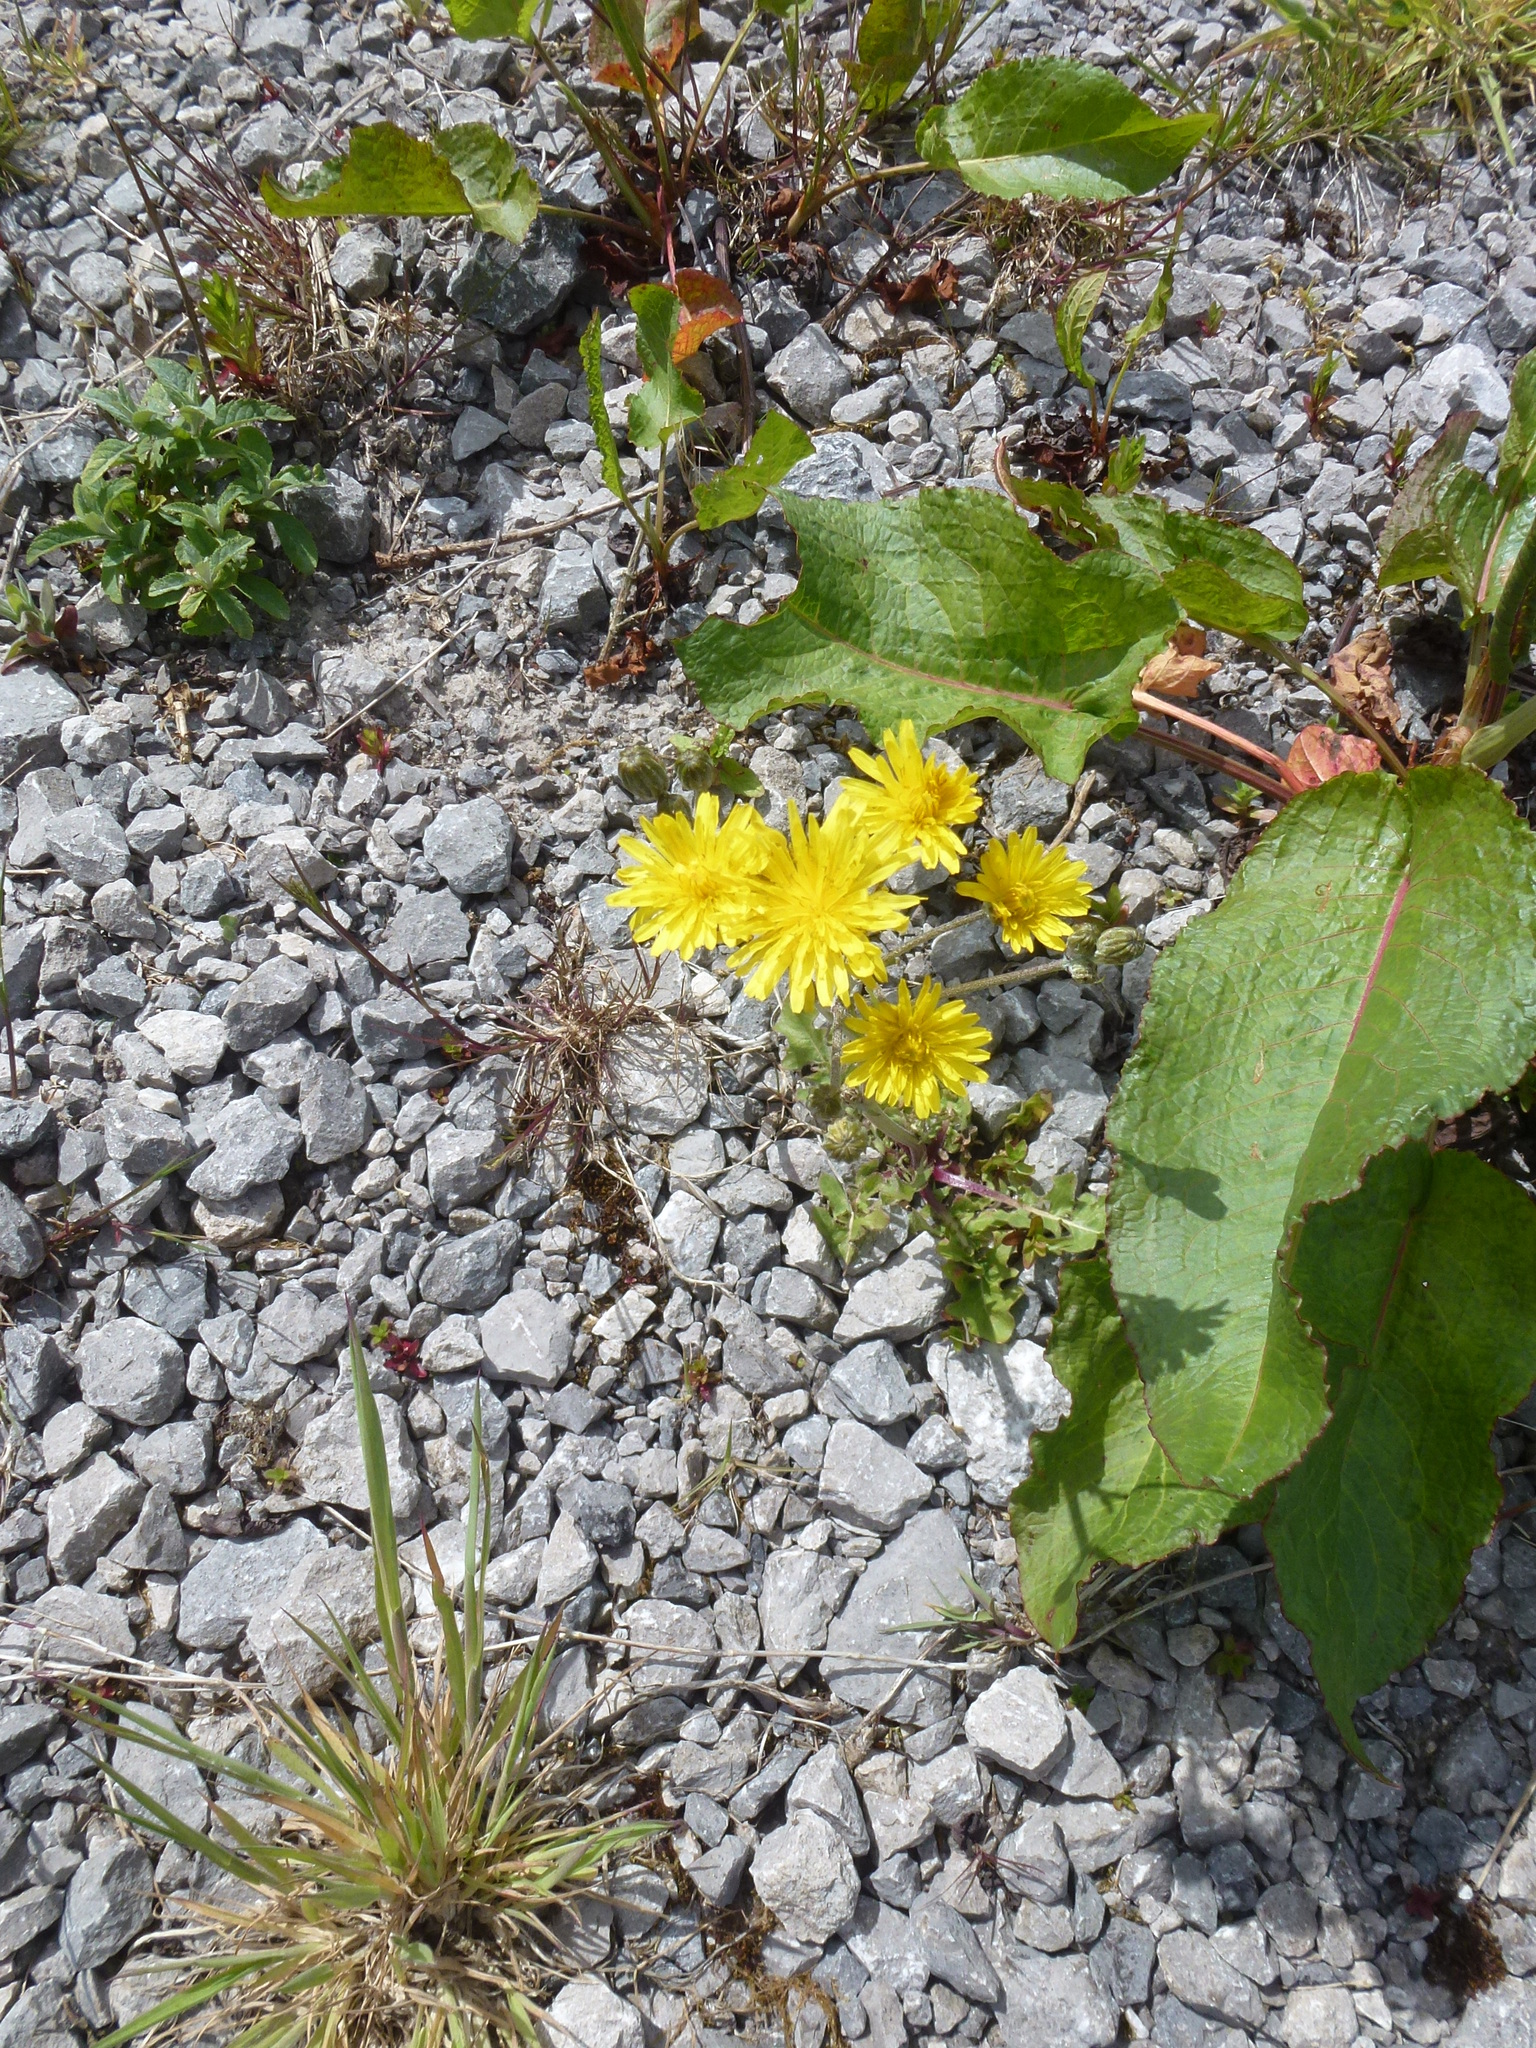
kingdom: Plantae
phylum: Tracheophyta
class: Magnoliopsida
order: Asterales
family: Asteraceae
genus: Crepis
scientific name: Crepis vesicaria
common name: Beaked hawksbeard
